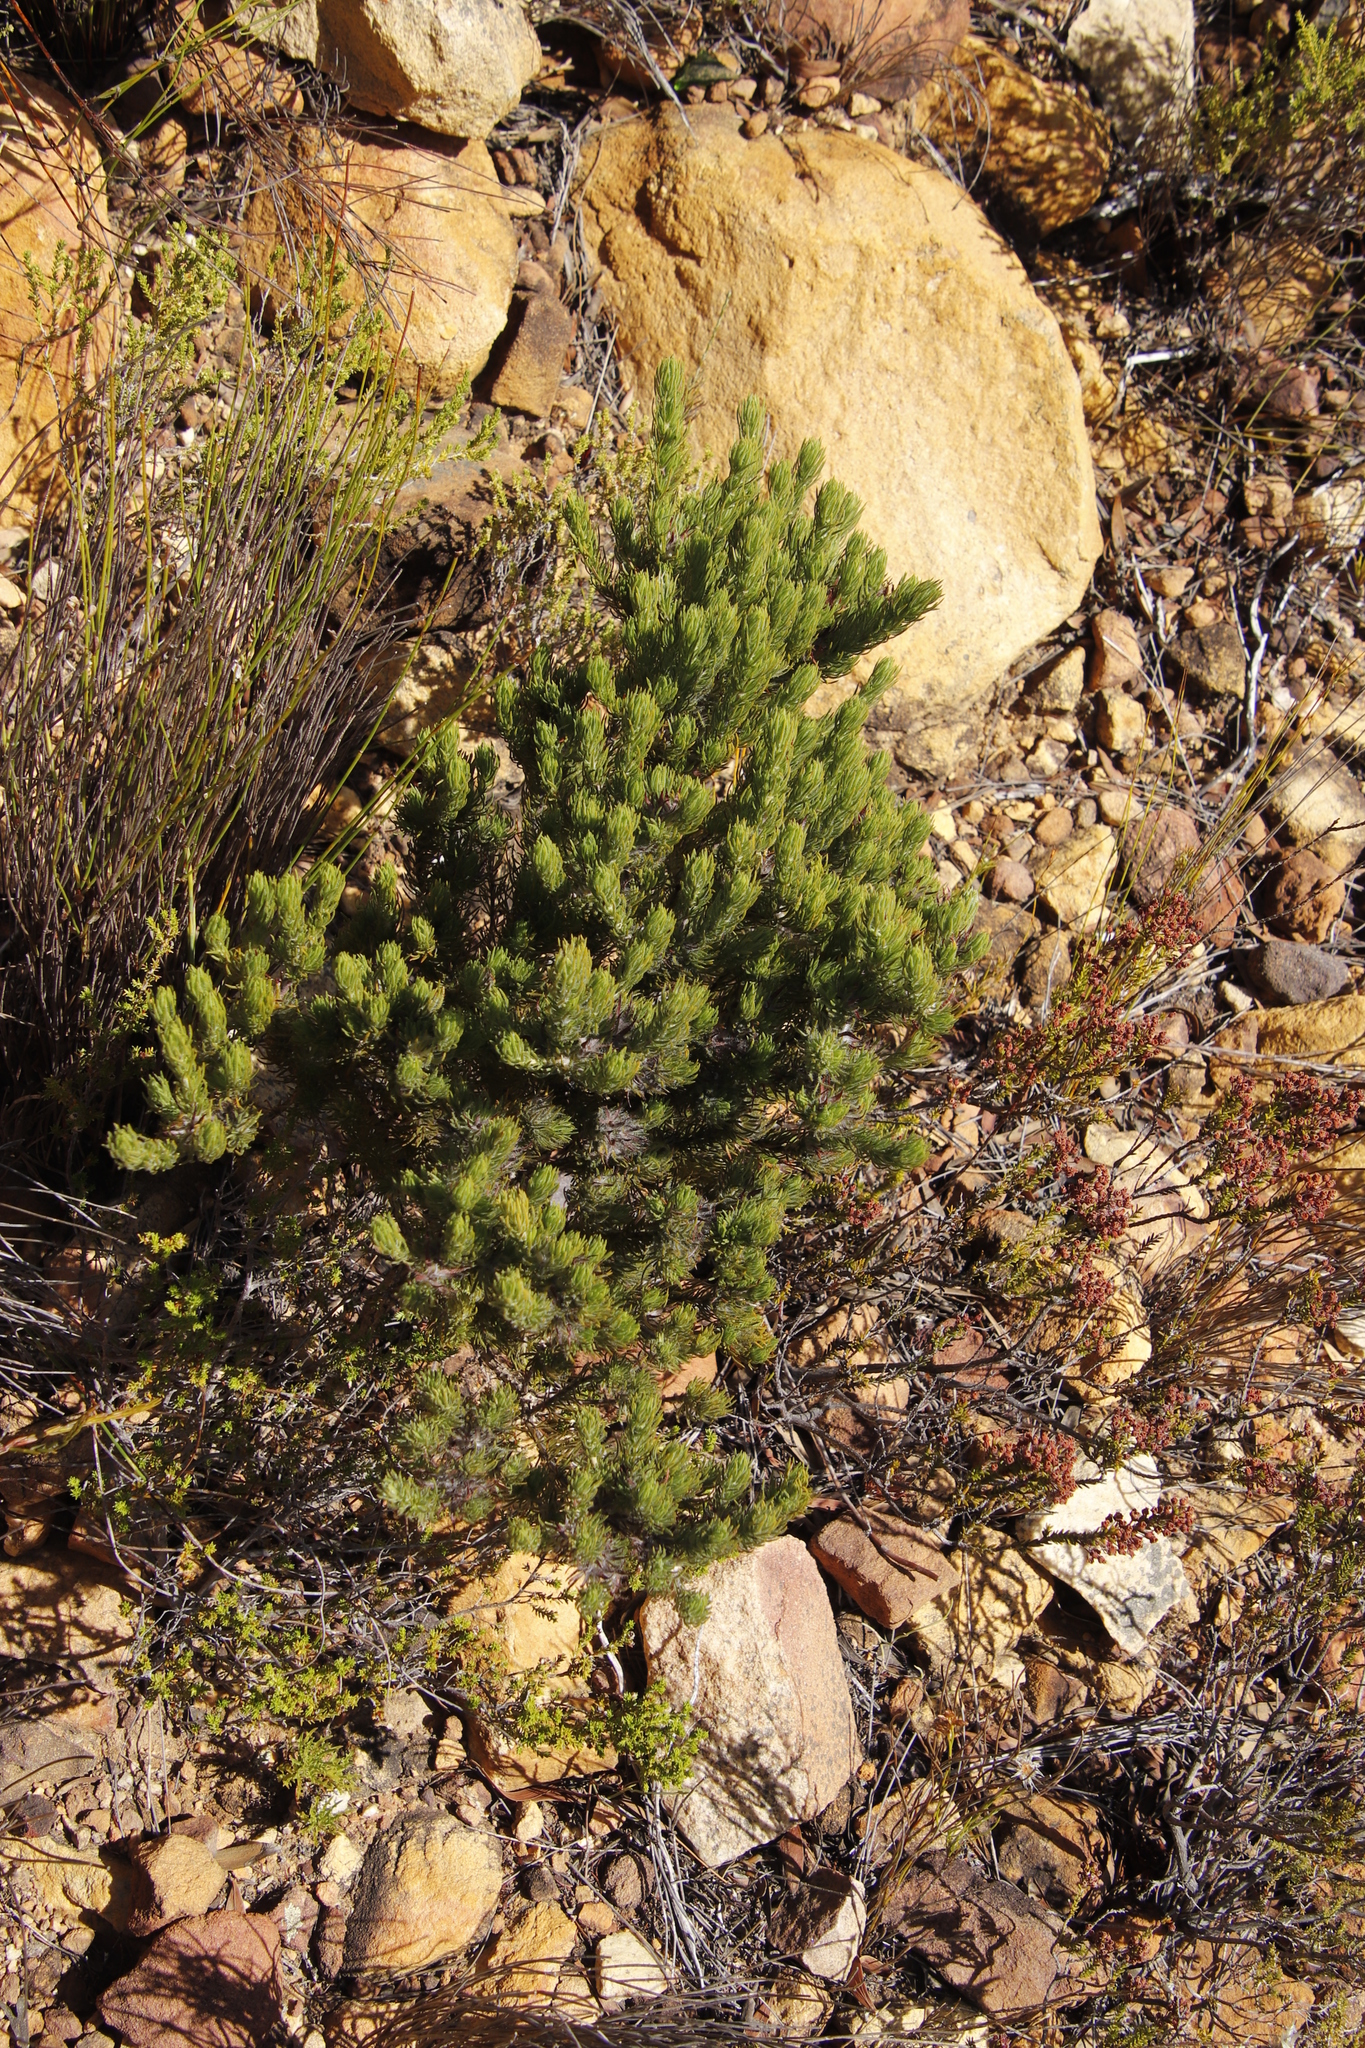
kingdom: Plantae
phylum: Tracheophyta
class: Magnoliopsida
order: Fabales
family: Fabaceae
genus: Aspalathus
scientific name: Aspalathus ciliaris
